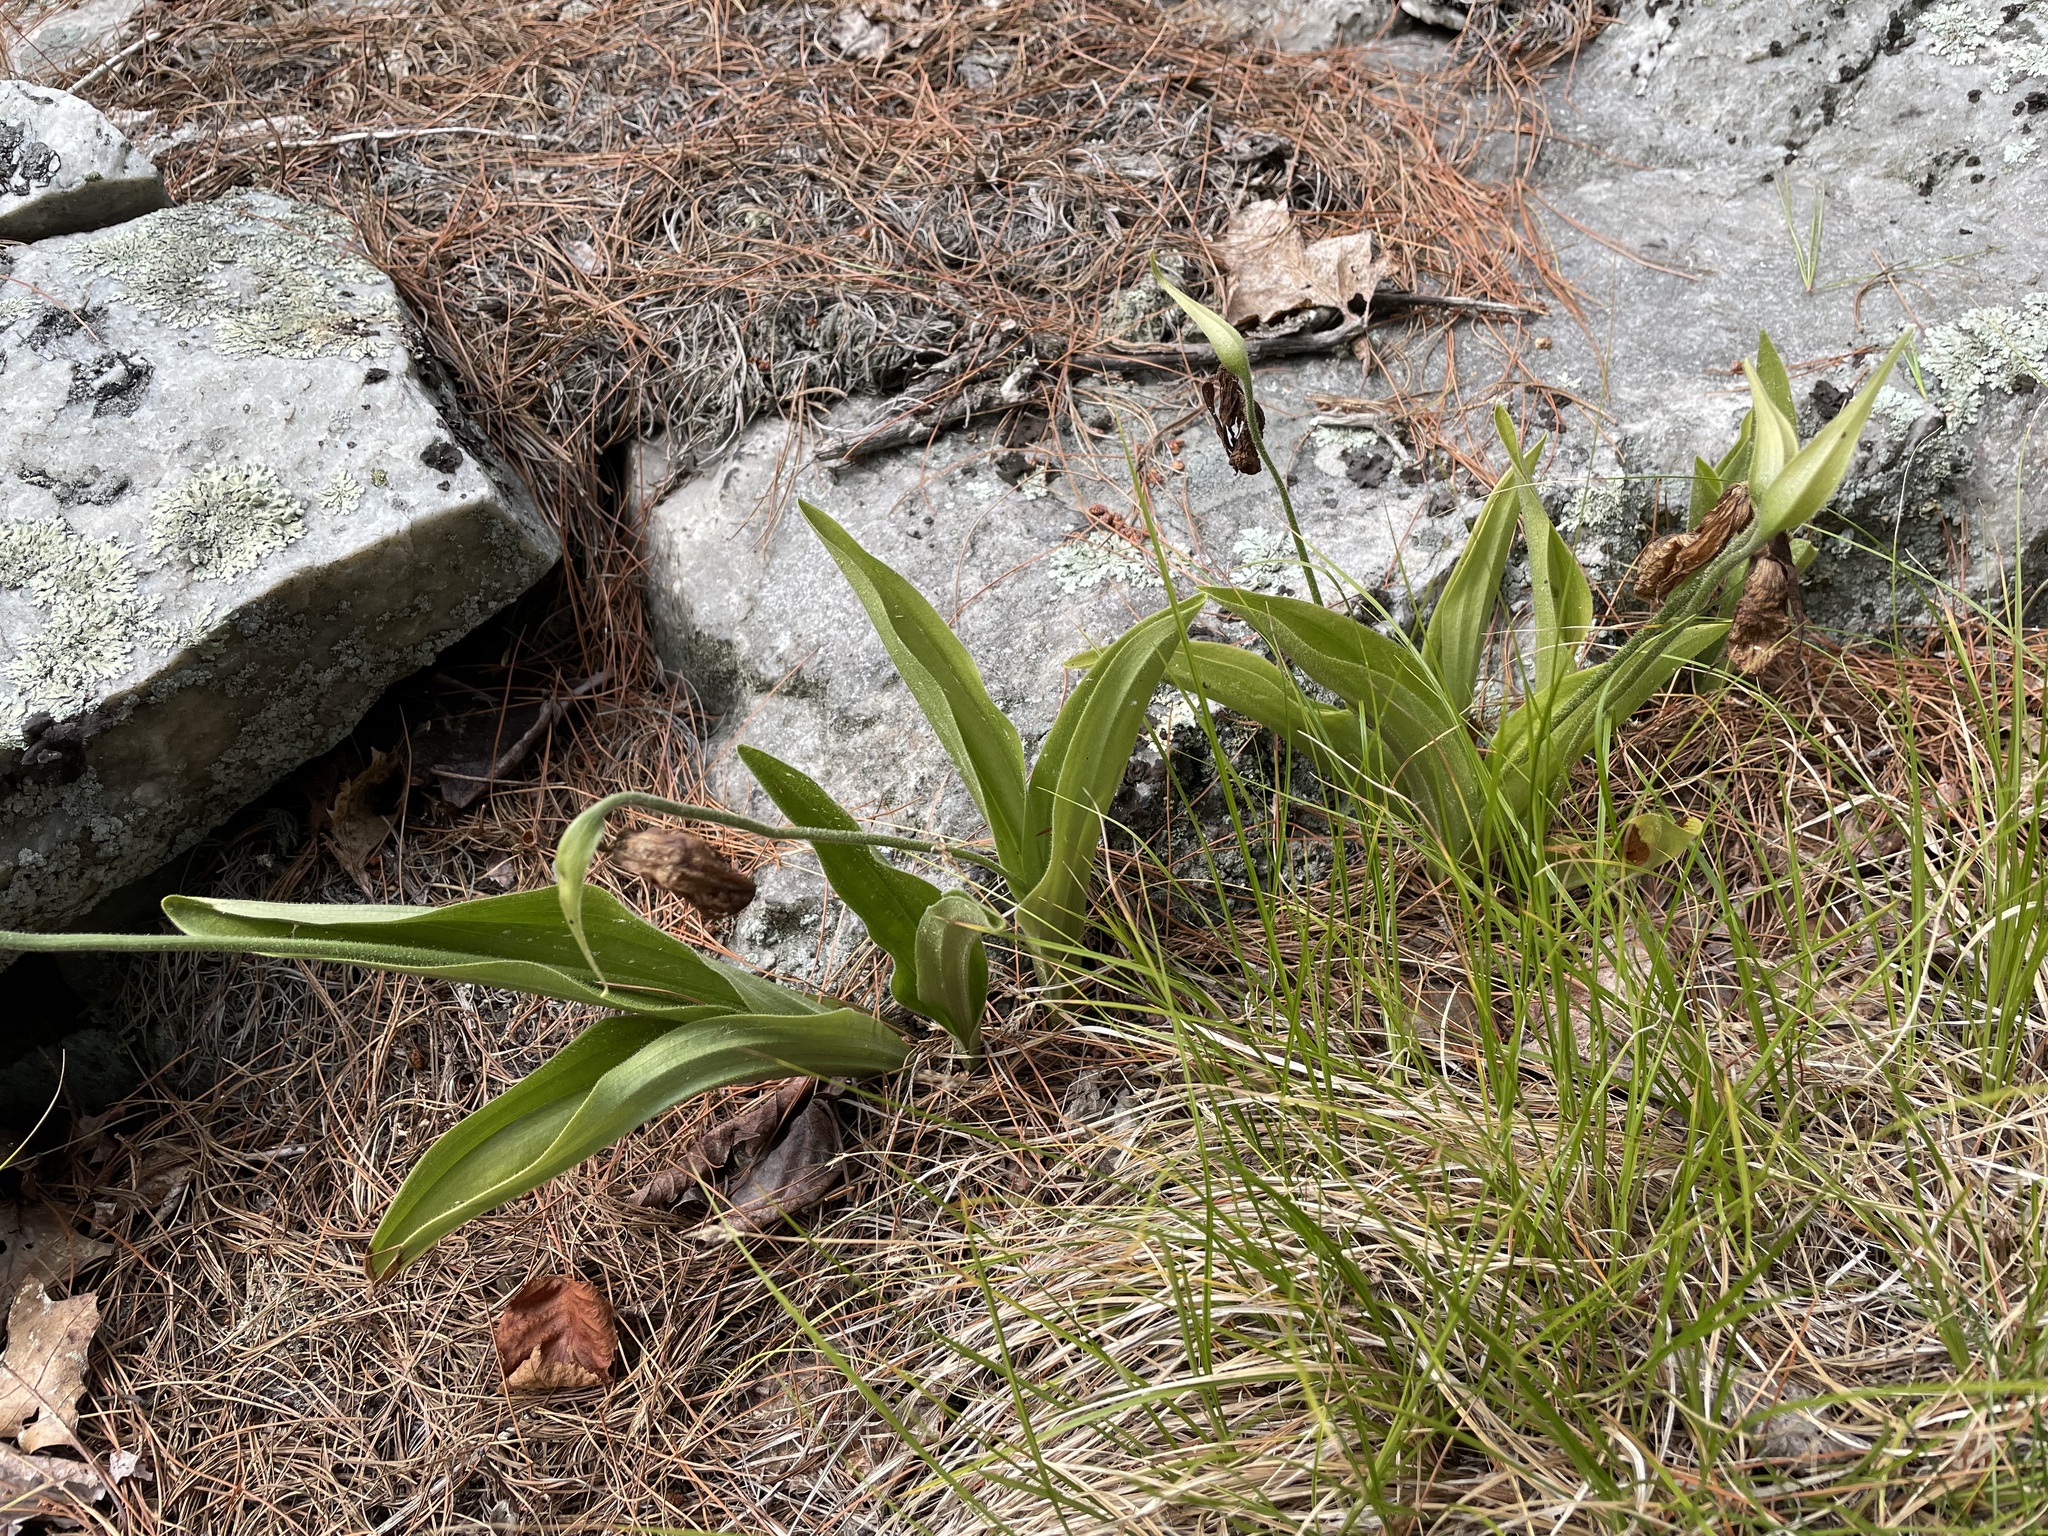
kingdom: Plantae
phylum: Tracheophyta
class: Liliopsida
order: Asparagales
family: Orchidaceae
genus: Cypripedium
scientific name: Cypripedium acaule
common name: Pink lady's-slipper
